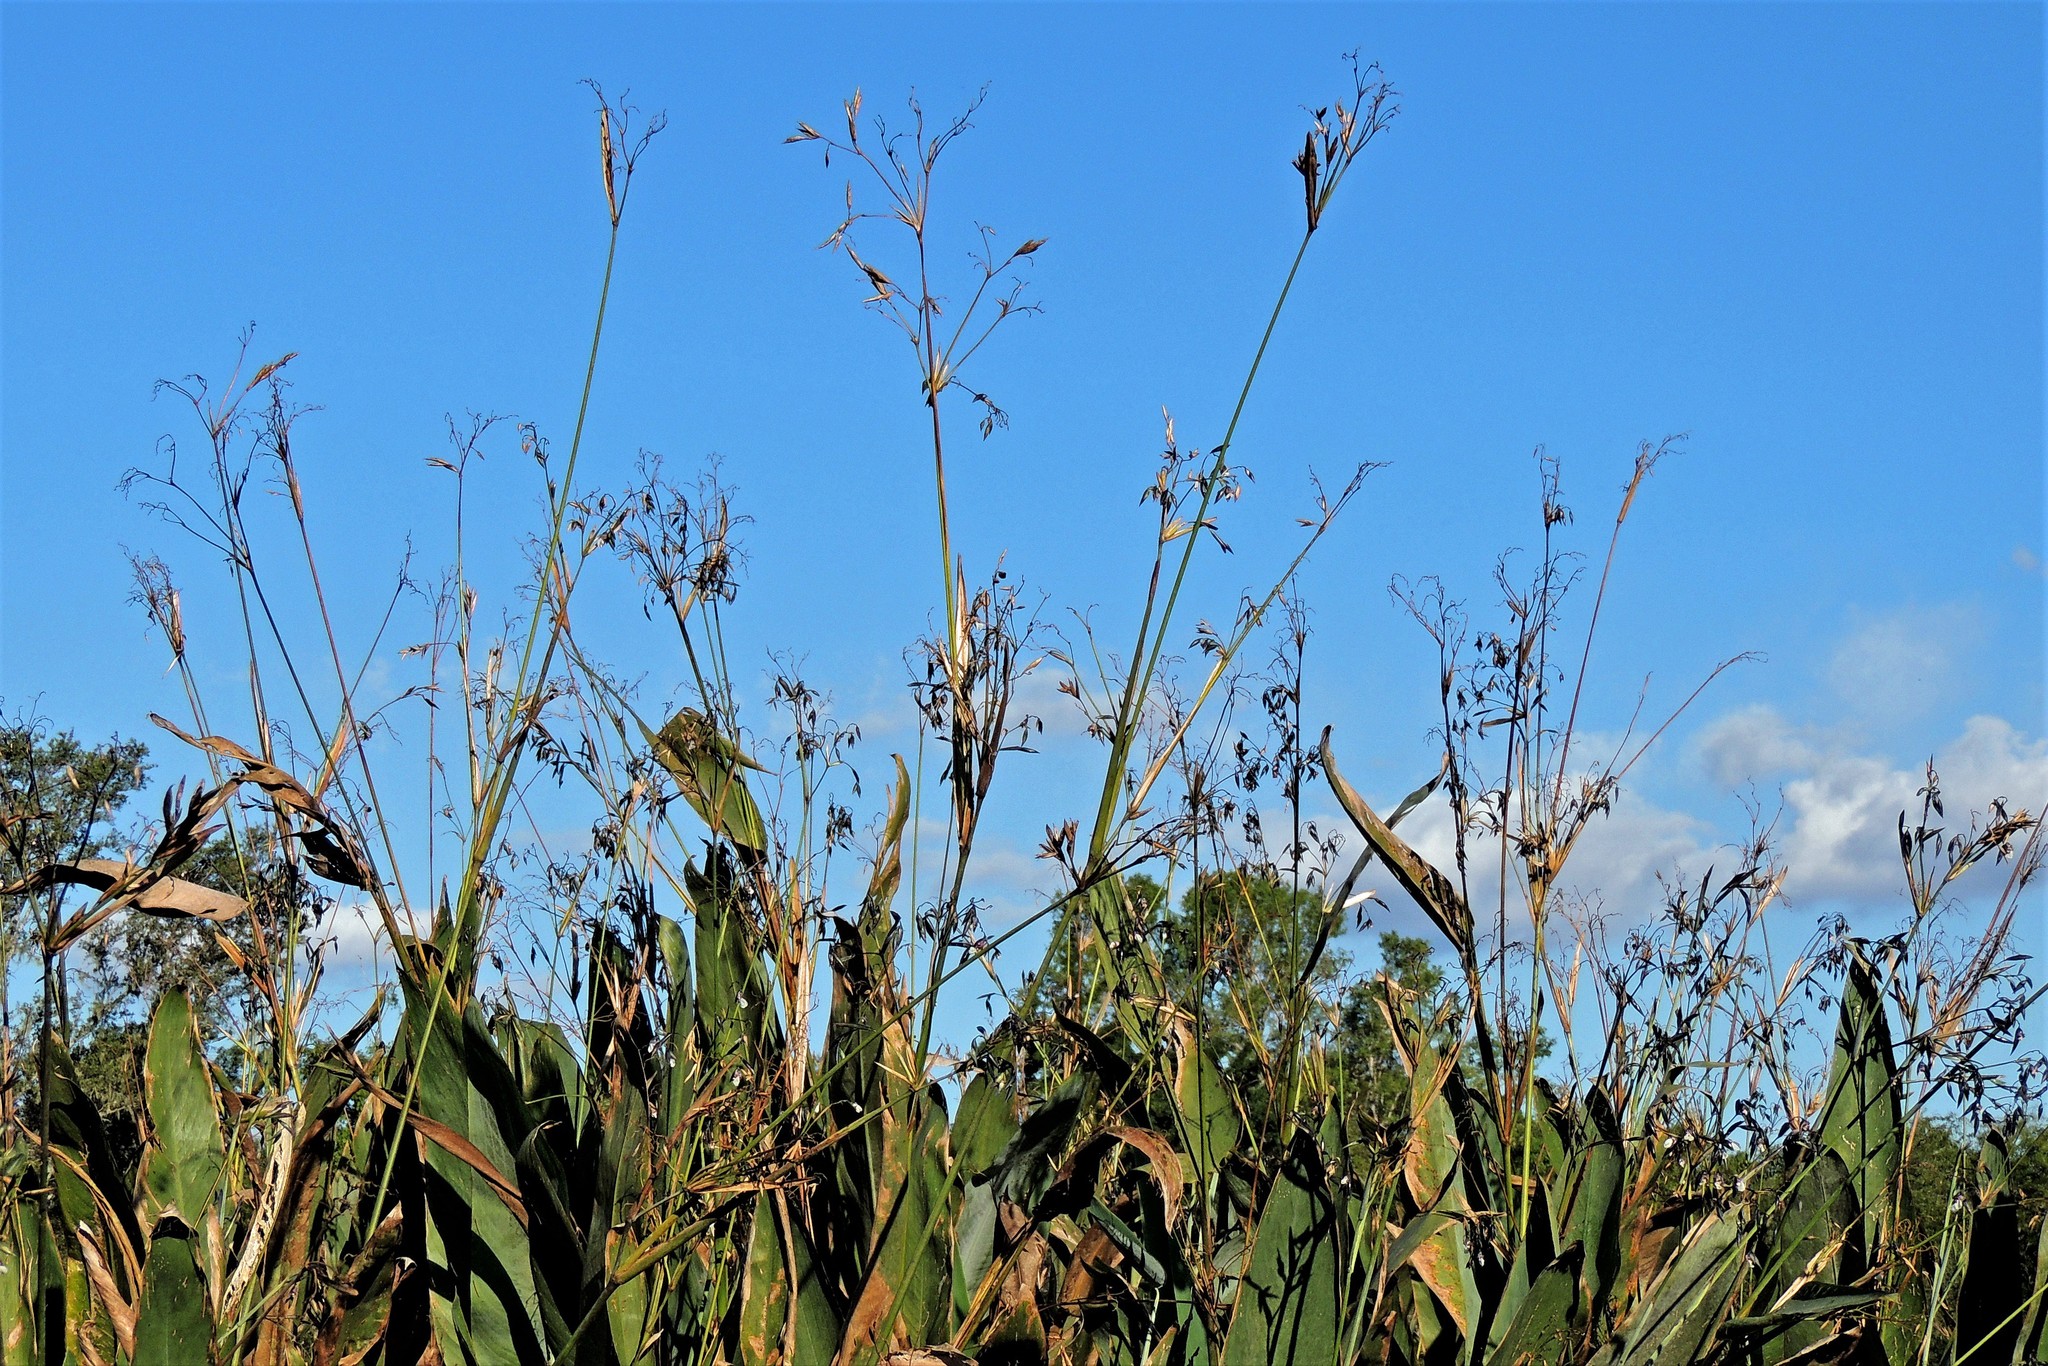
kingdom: Plantae
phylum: Tracheophyta
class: Liliopsida
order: Zingiberales
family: Marantaceae
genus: Thalia
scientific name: Thalia geniculata
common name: Arrowroot
